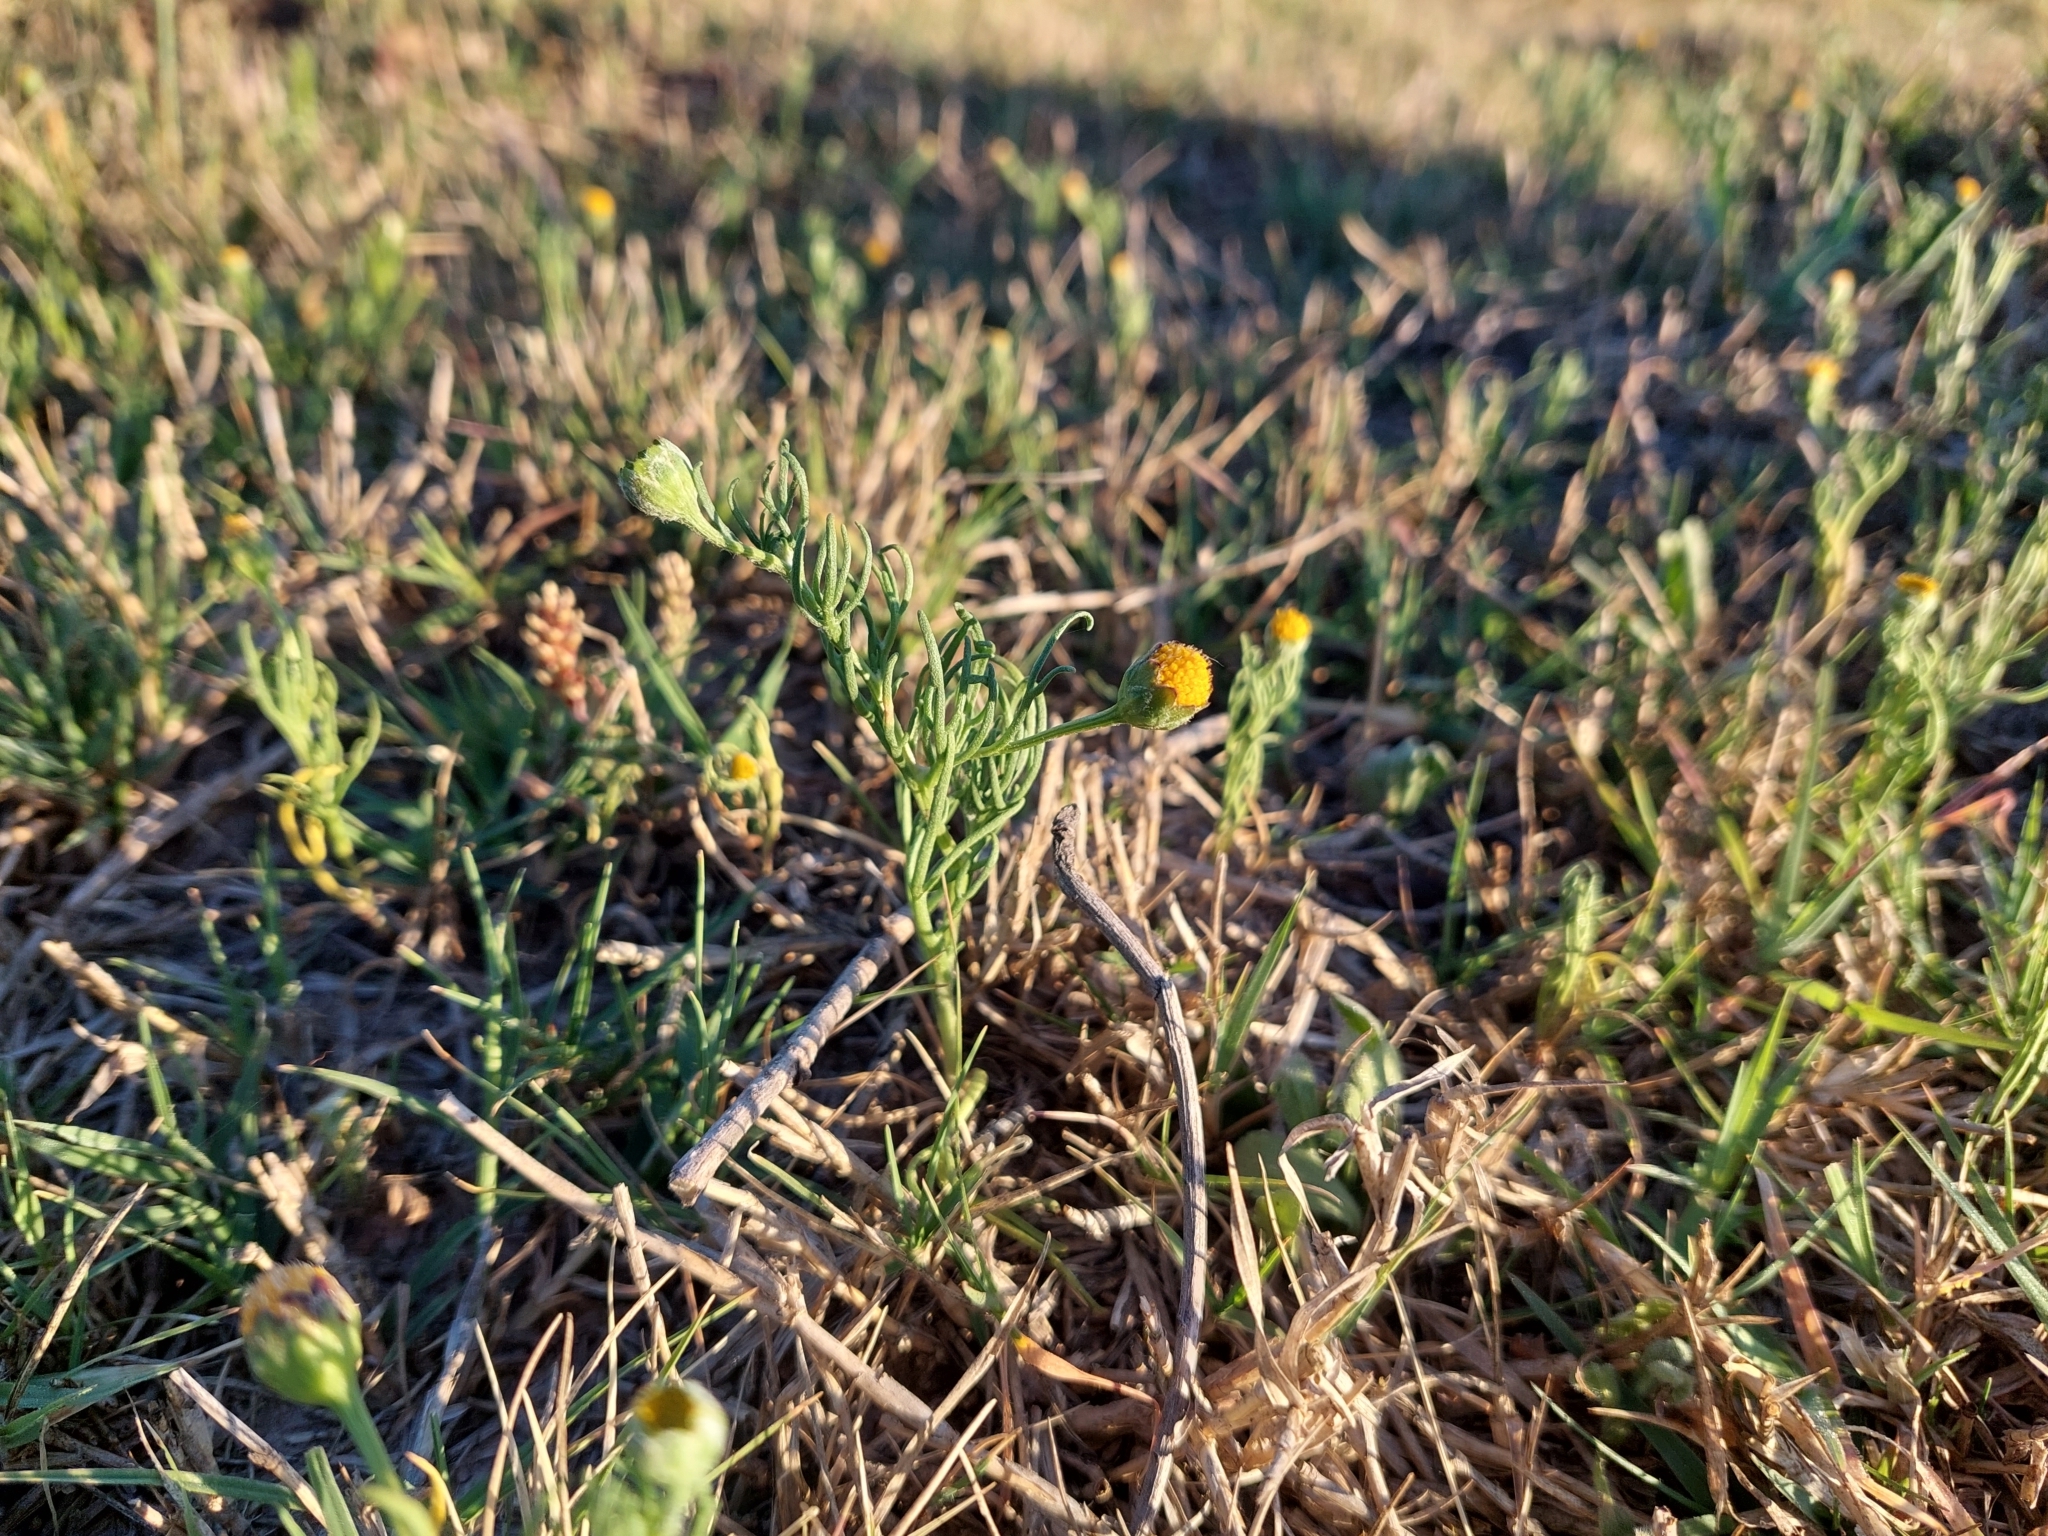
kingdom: Plantae
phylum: Tracheophyta
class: Magnoliopsida
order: Asterales
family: Asteraceae
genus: Hymenoxys
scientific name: Hymenoxys anthemoides
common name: South american rubberweed
